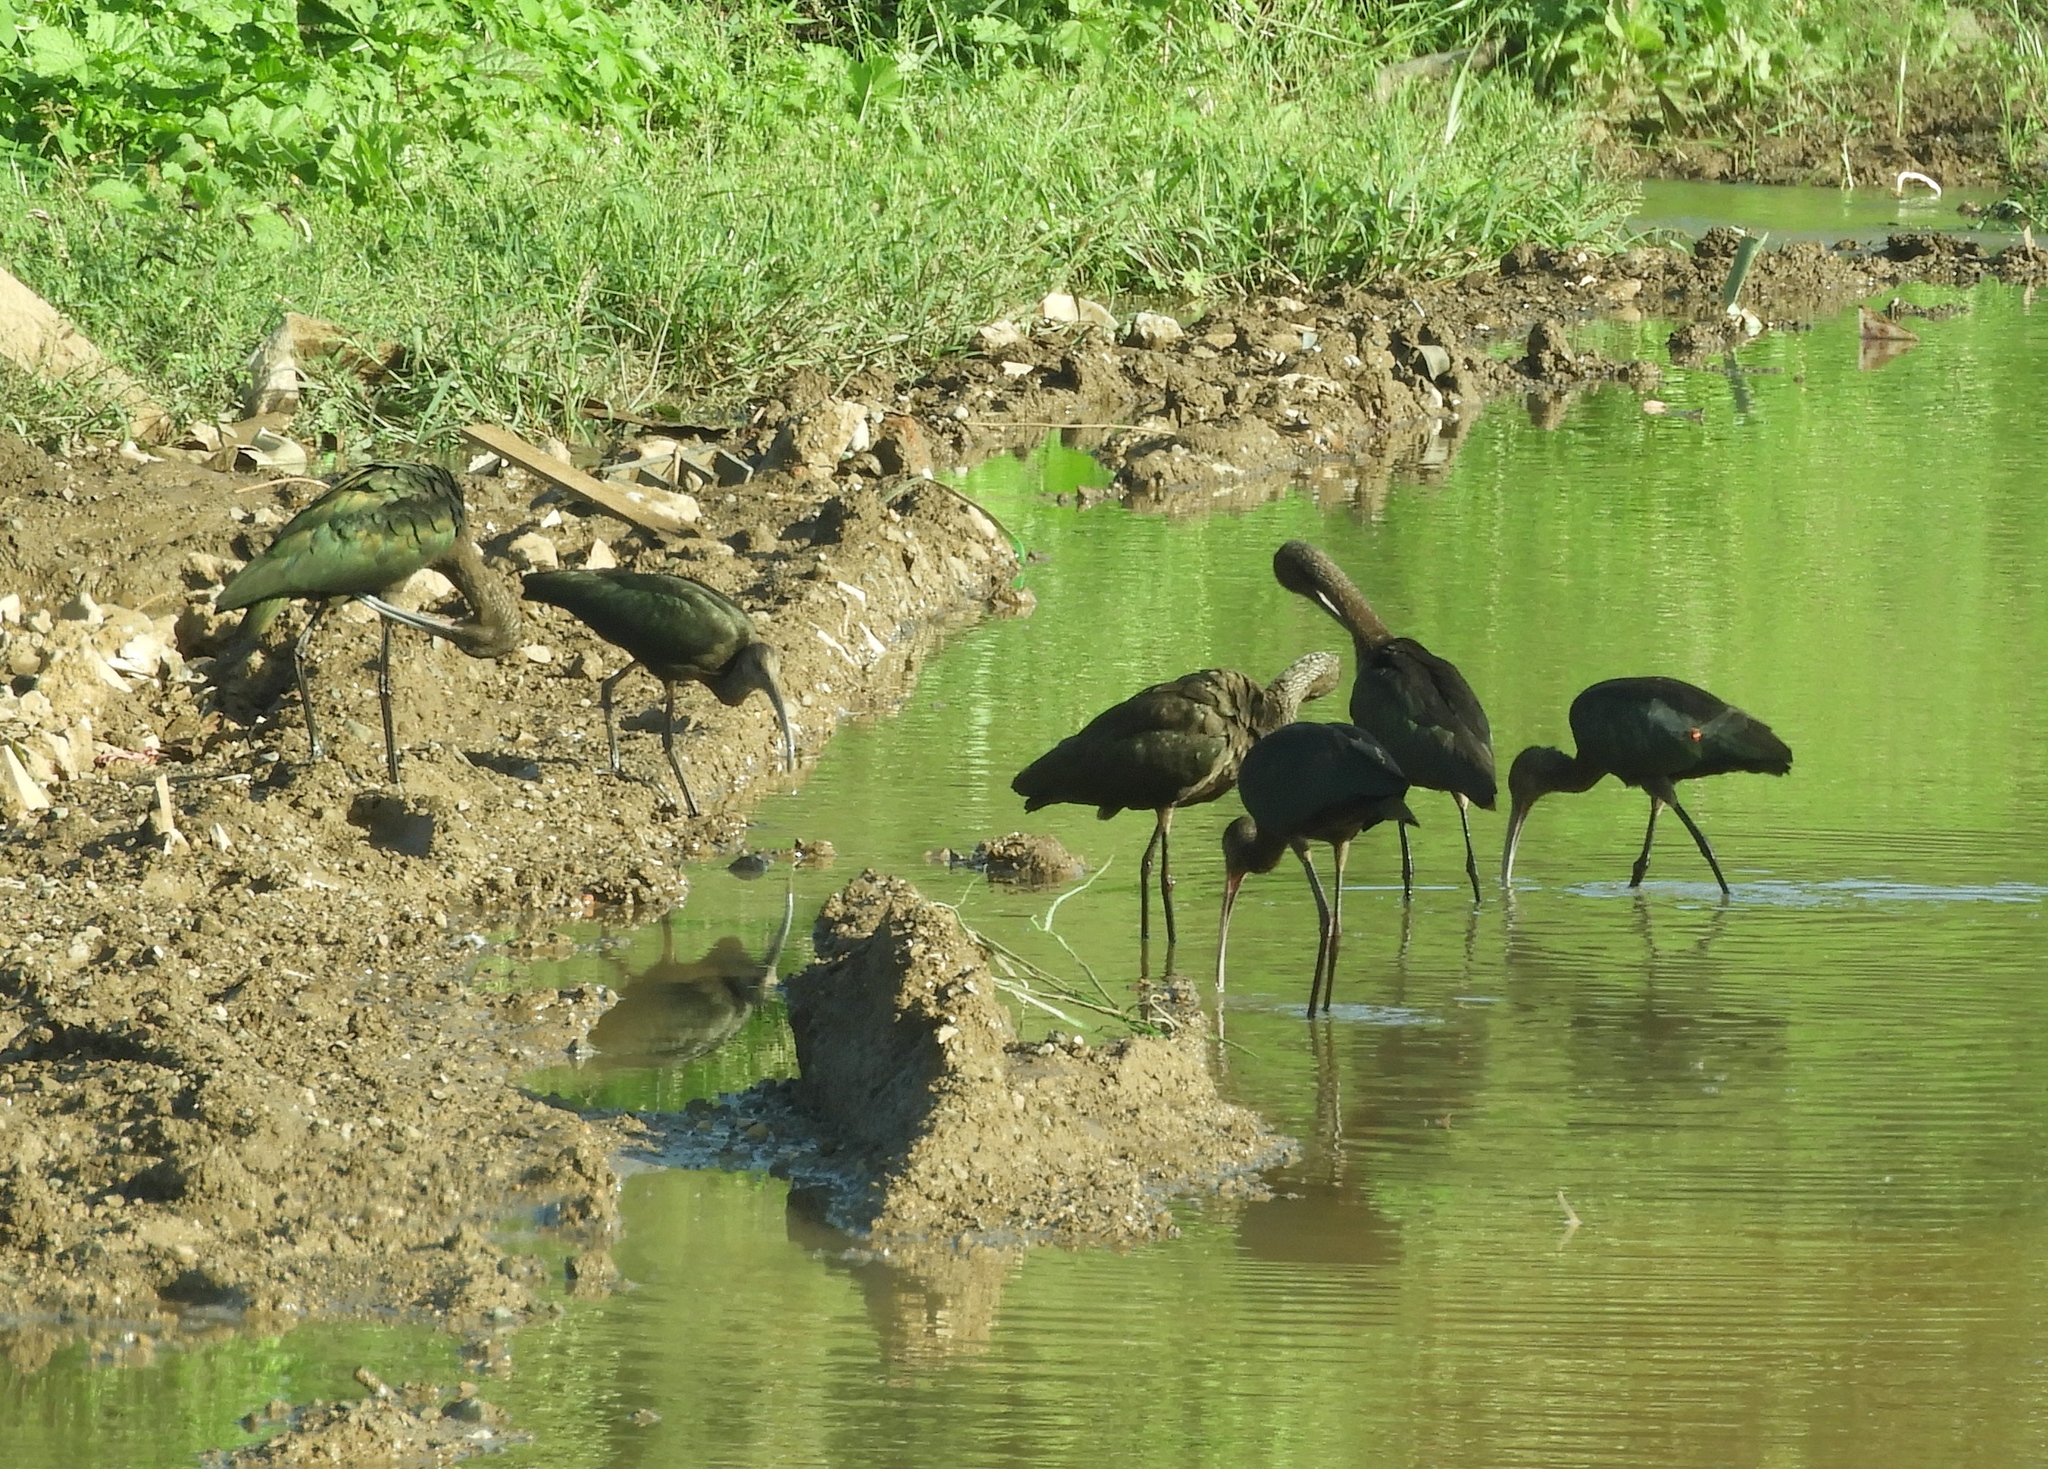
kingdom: Animalia
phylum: Chordata
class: Aves
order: Pelecaniformes
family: Threskiornithidae
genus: Plegadis
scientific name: Plegadis chihi
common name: White-faced ibis
